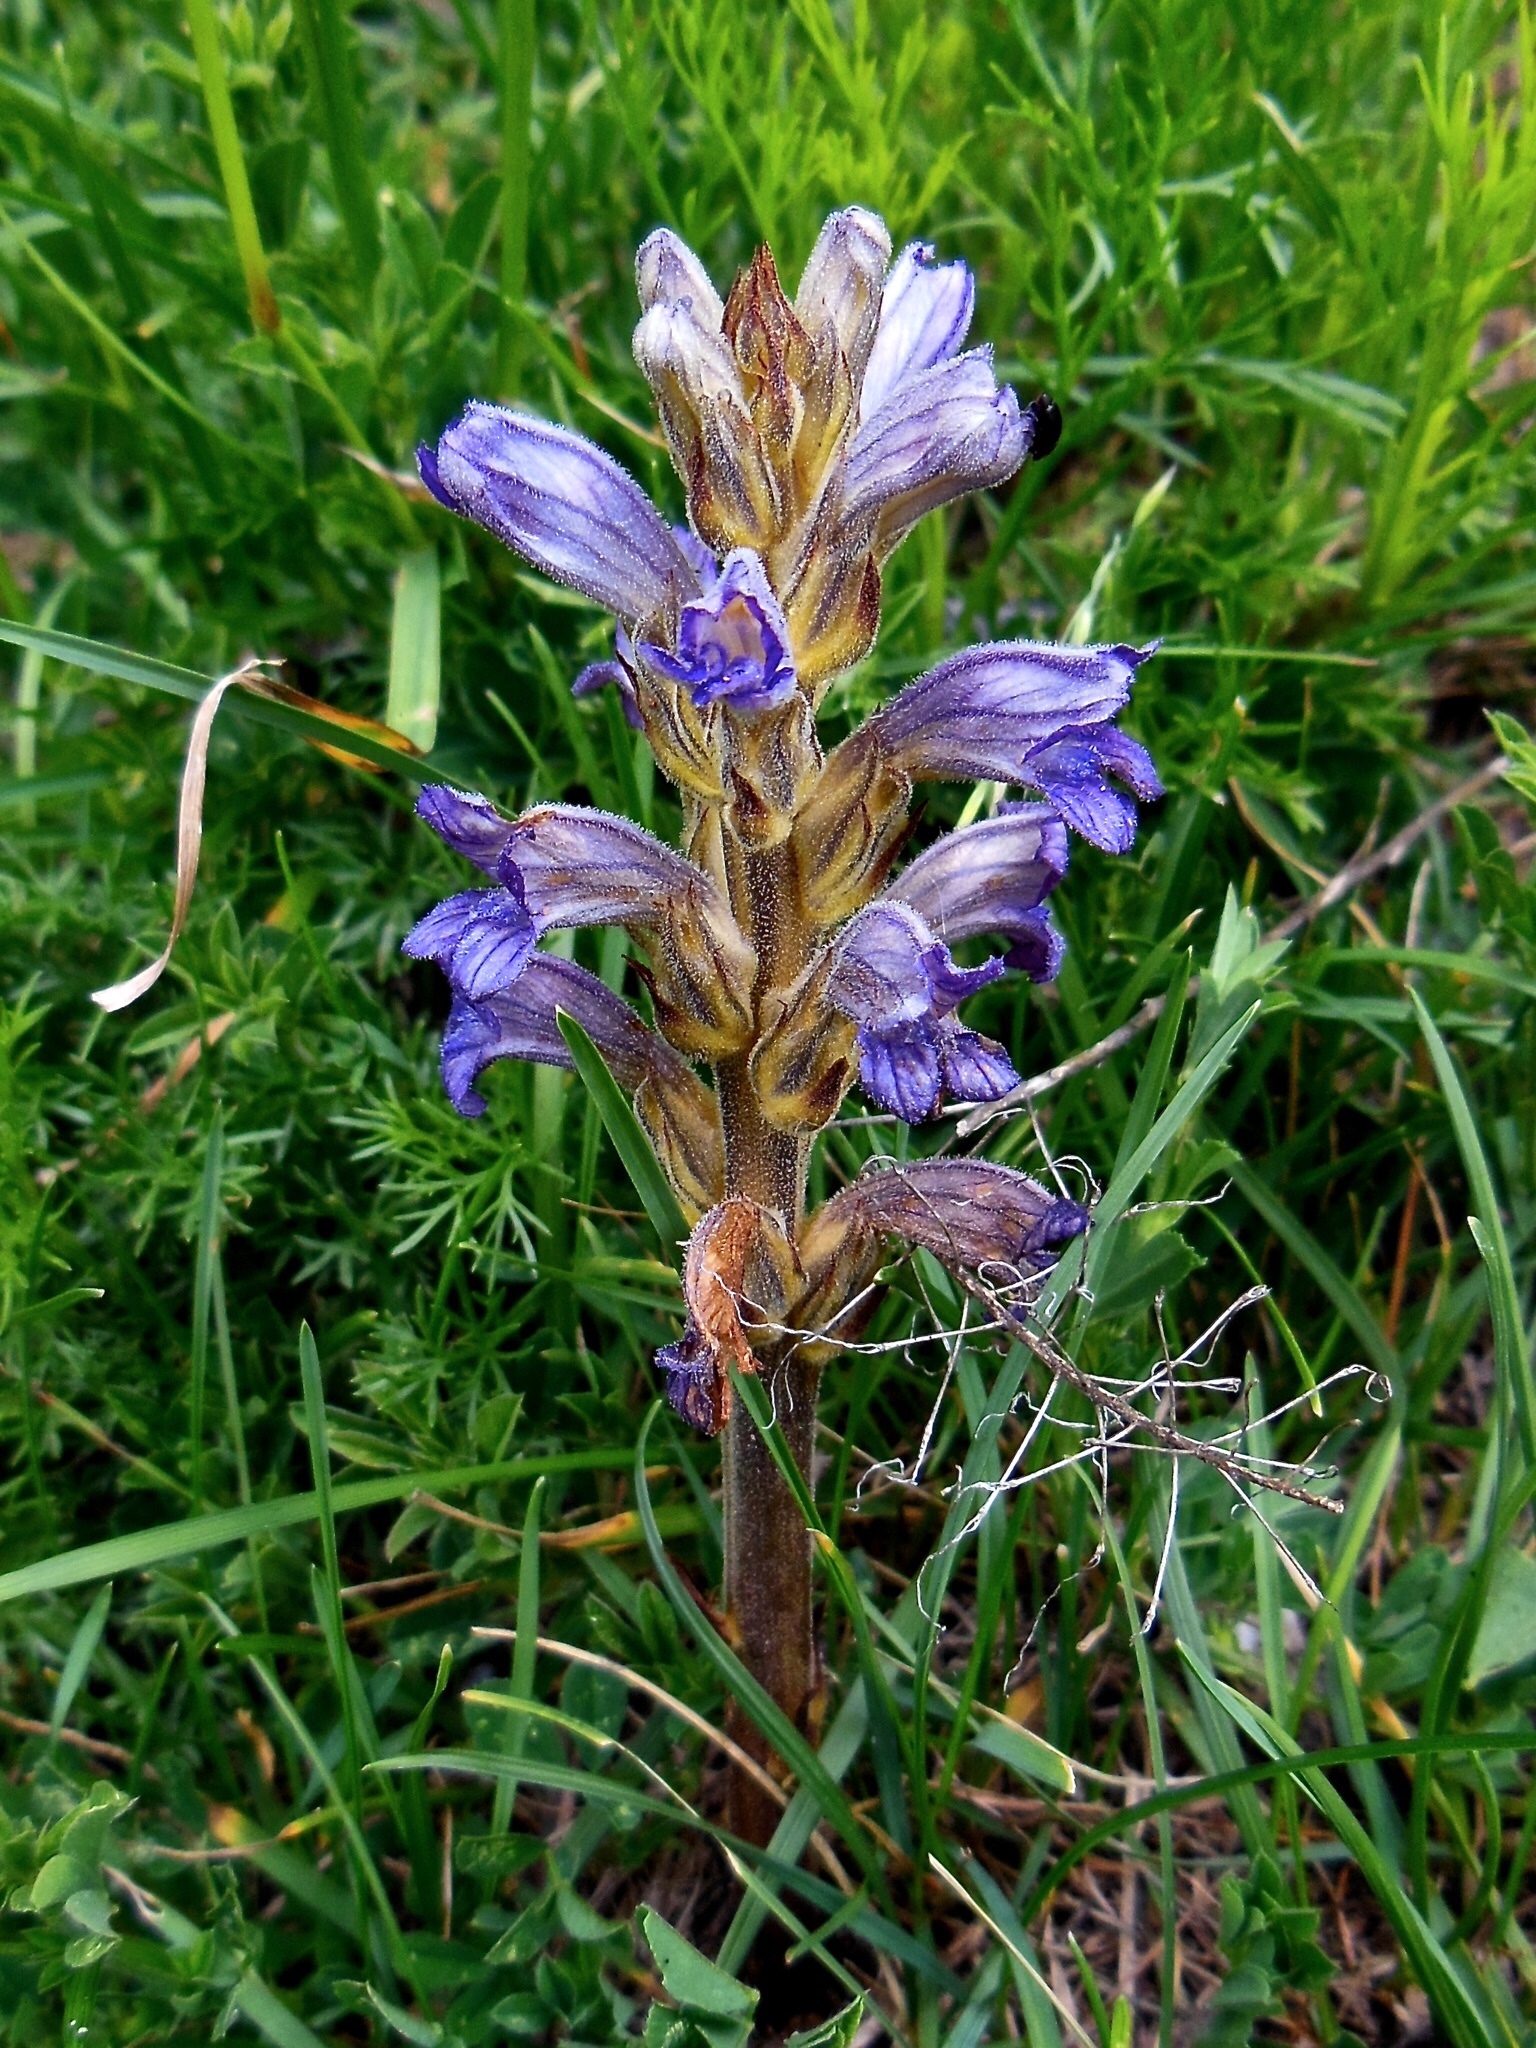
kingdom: Plantae
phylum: Tracheophyta
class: Magnoliopsida
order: Lamiales
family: Orobanchaceae
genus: Phelipanche
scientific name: Phelipanche purpurea
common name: Purple broomrape
